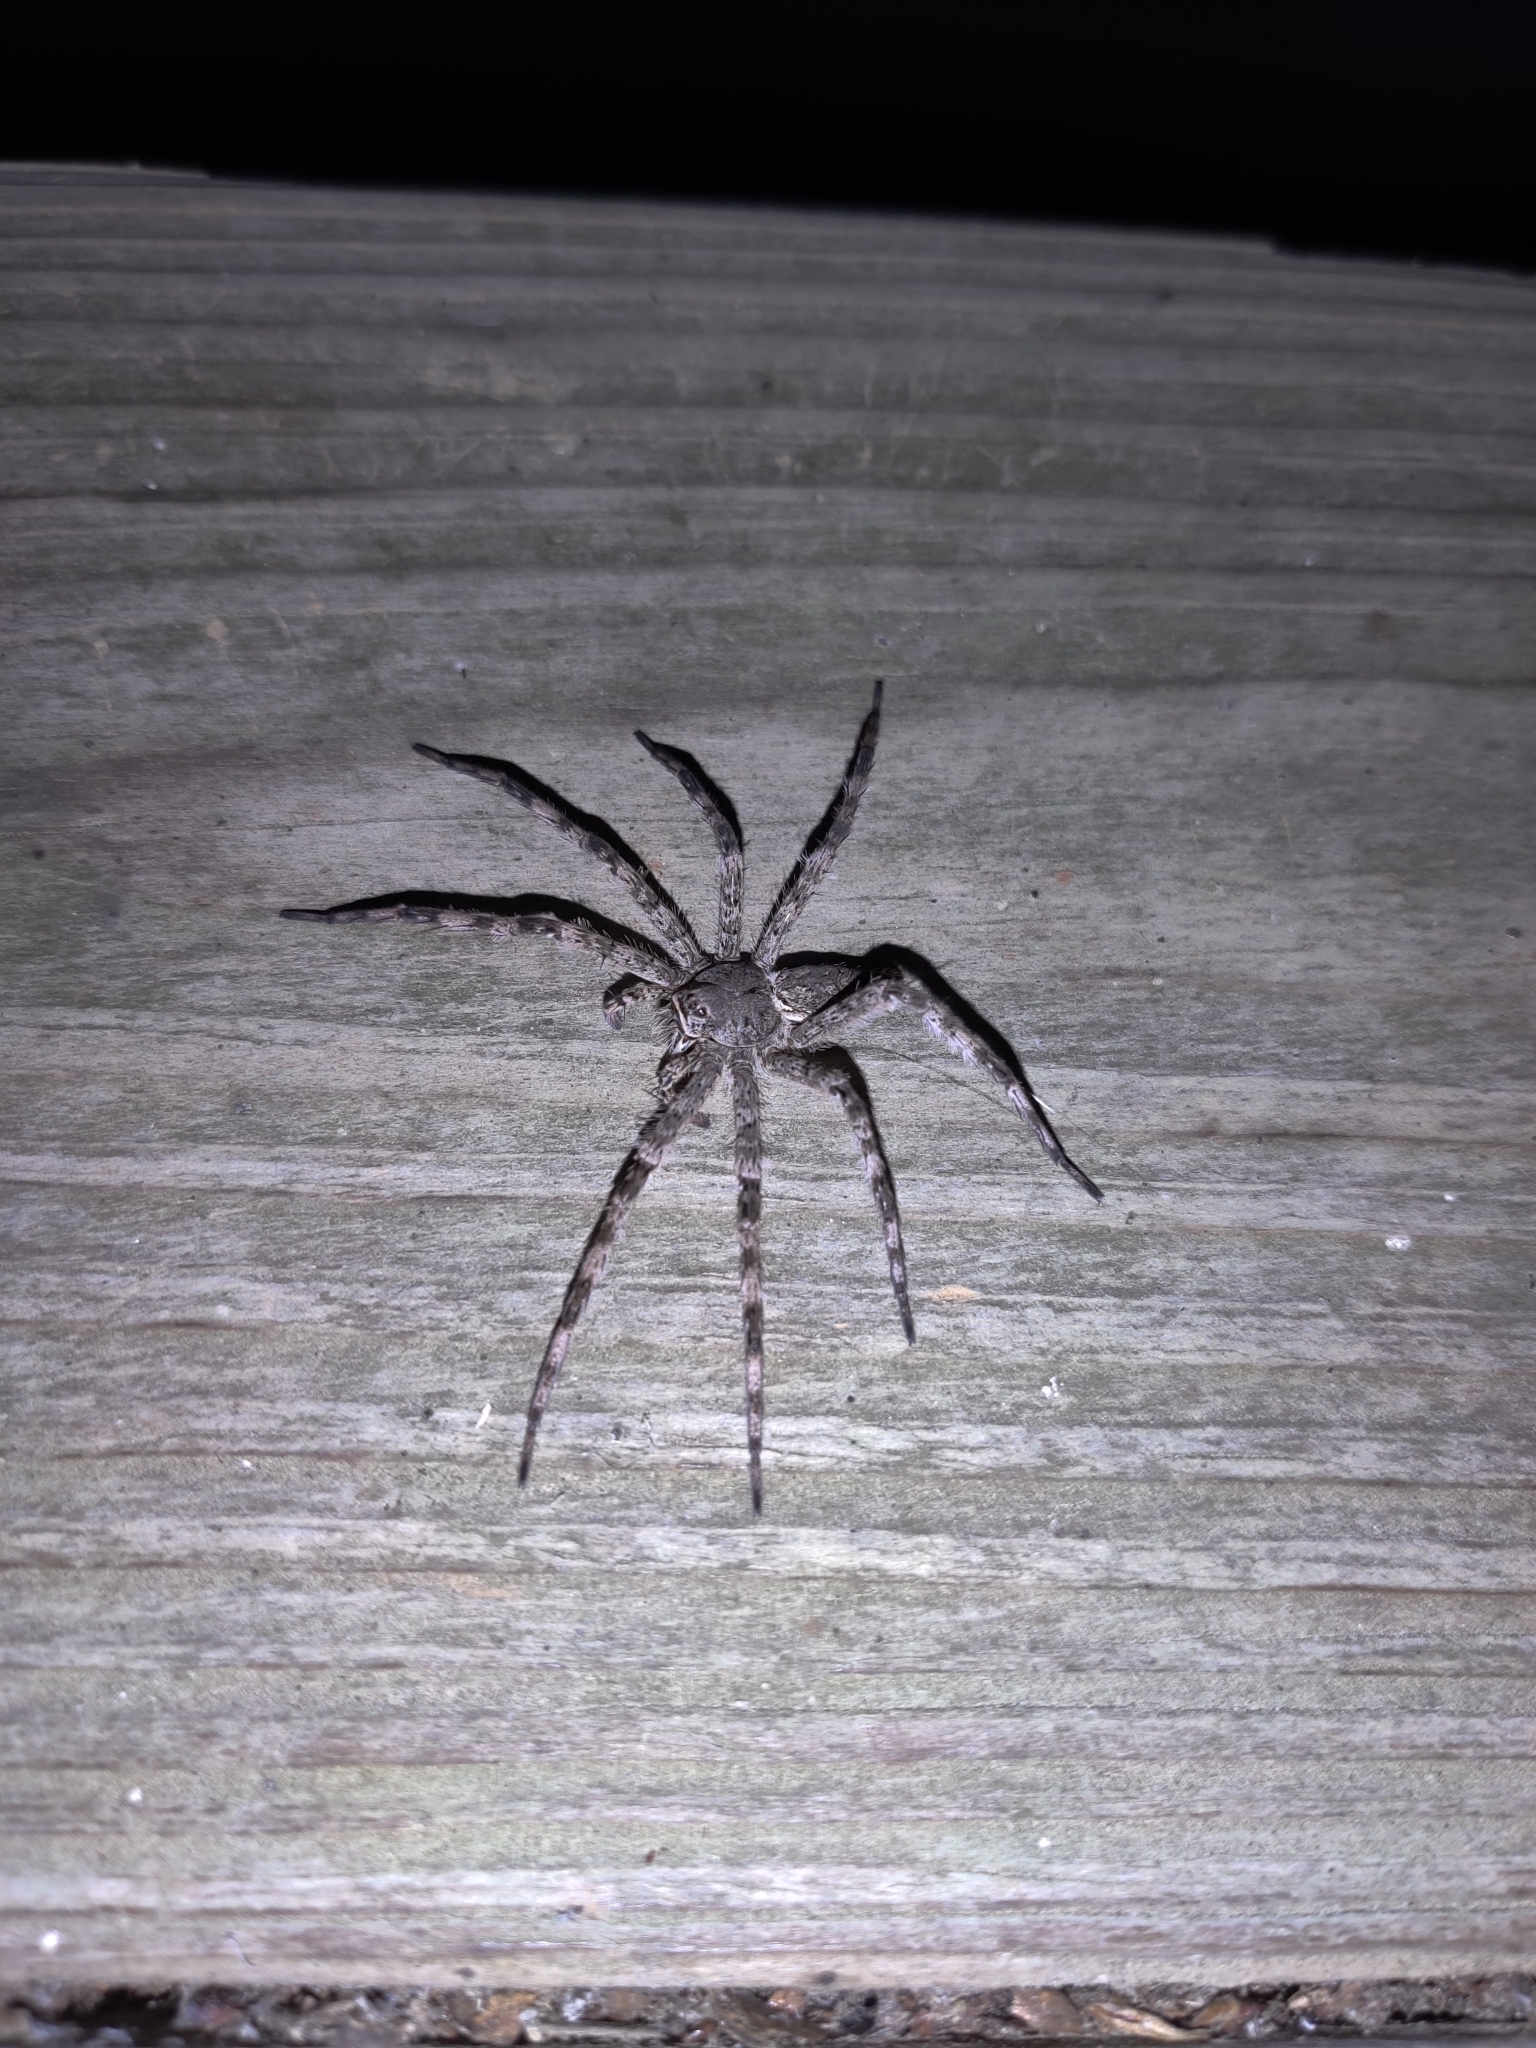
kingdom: Animalia
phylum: Arthropoda
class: Arachnida
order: Araneae
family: Pisauridae
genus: Dolomedes
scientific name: Dolomedes albineus
